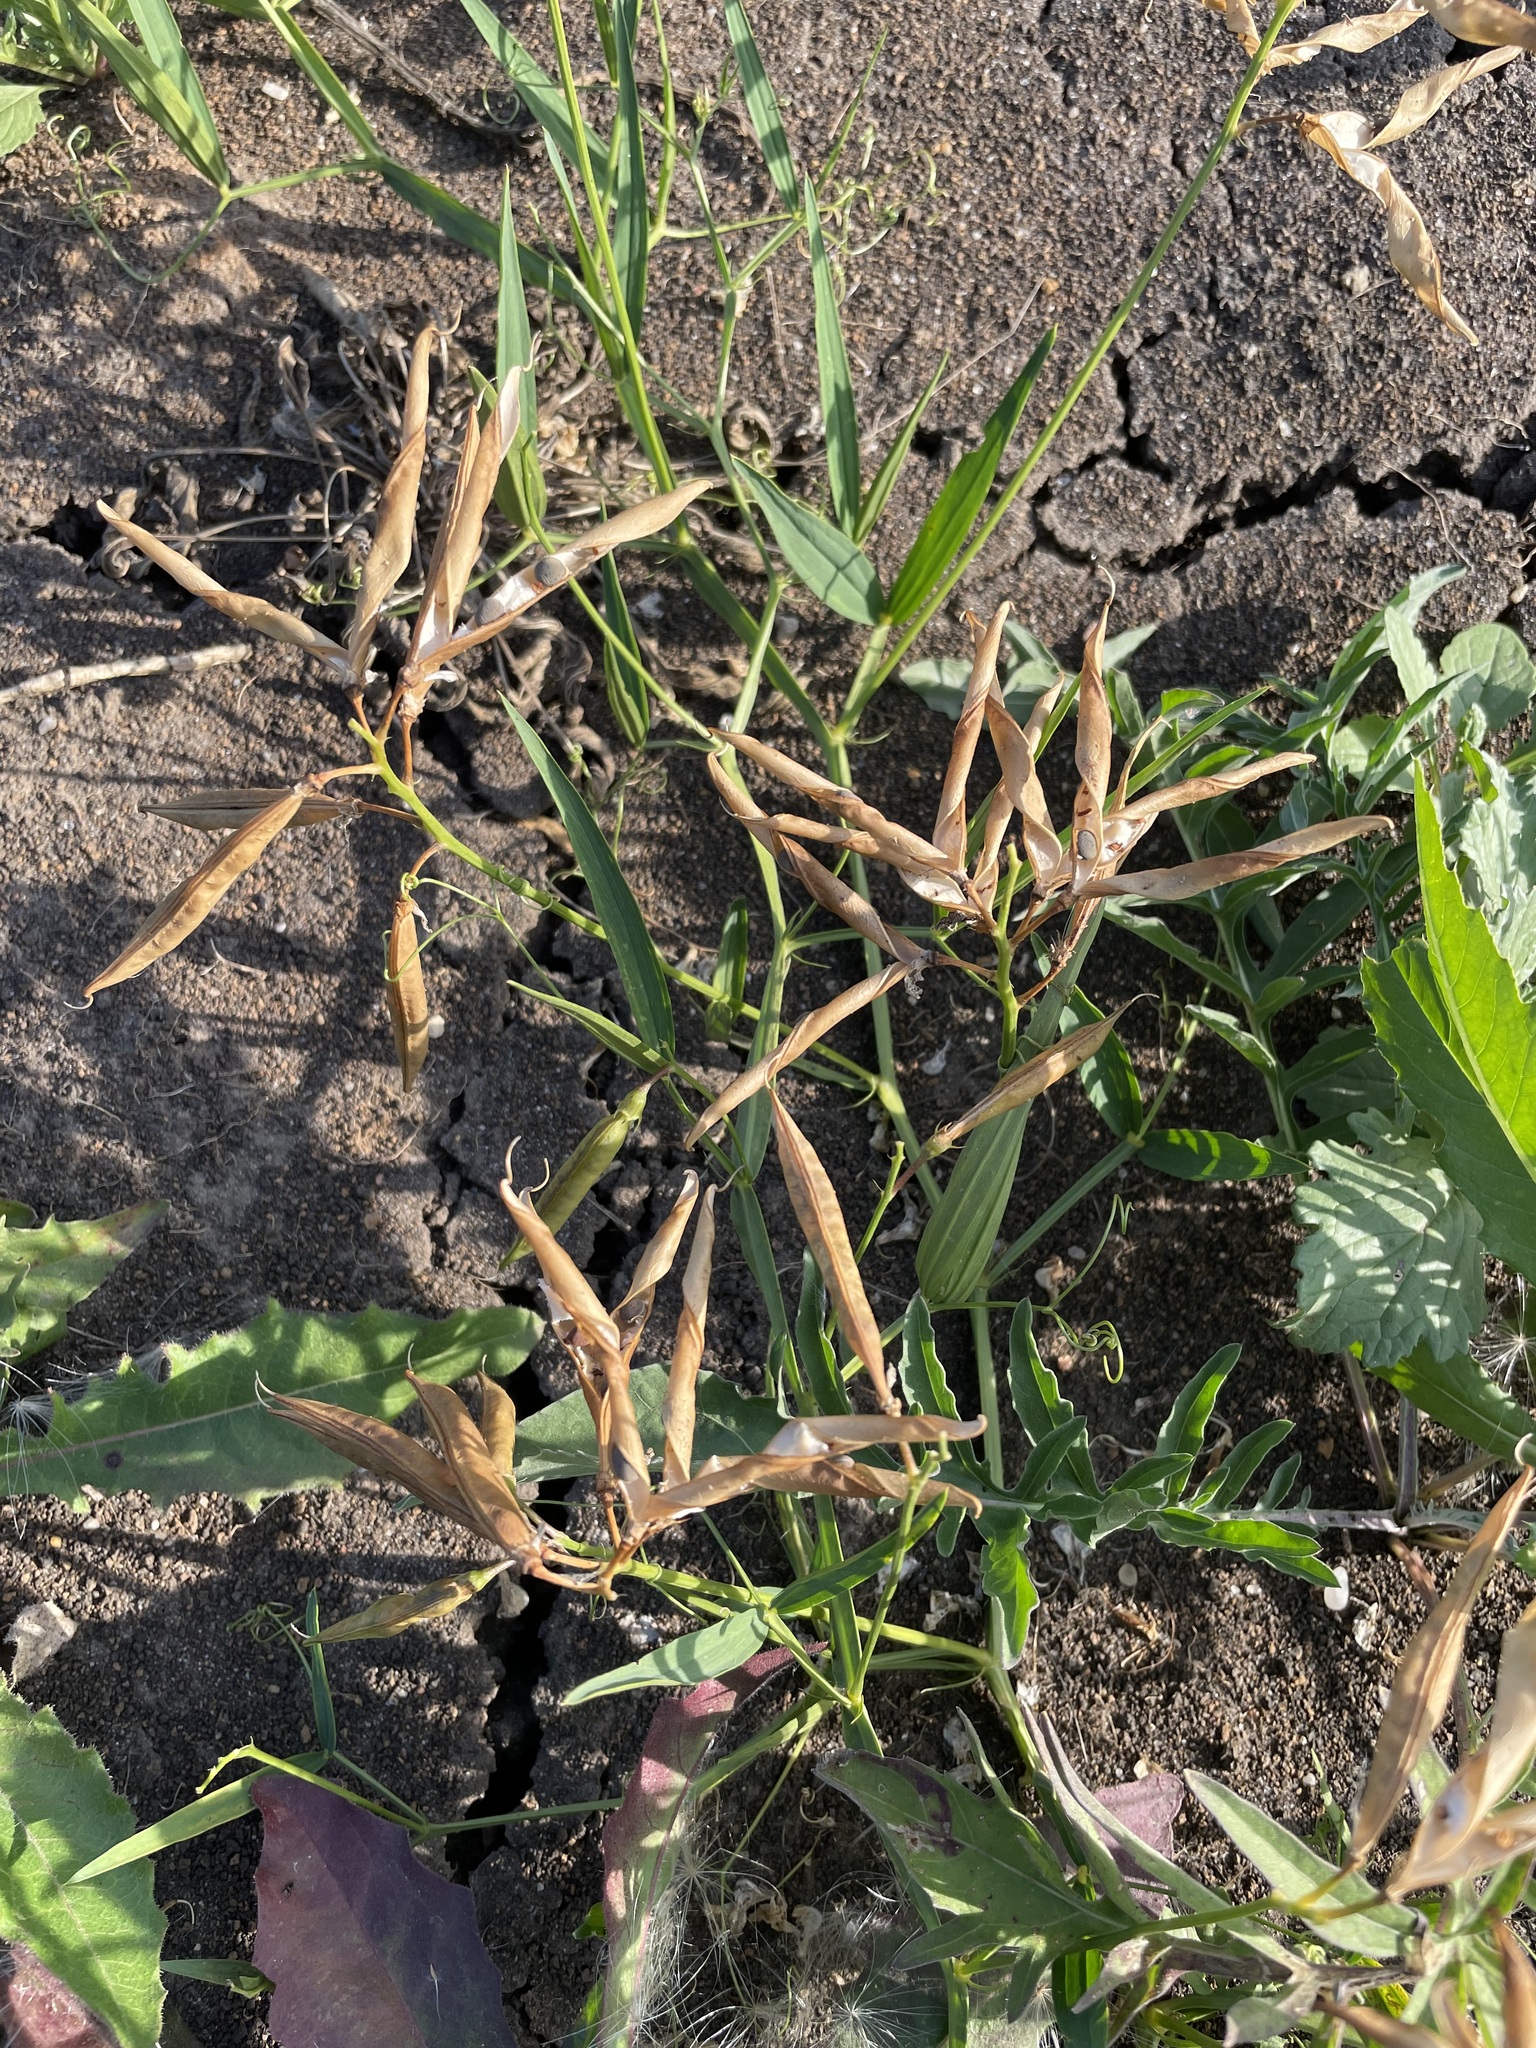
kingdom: Plantae
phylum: Tracheophyta
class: Magnoliopsida
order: Fabales
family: Fabaceae
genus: Lathyrus
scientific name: Lathyrus sylvestris
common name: Flat pea
